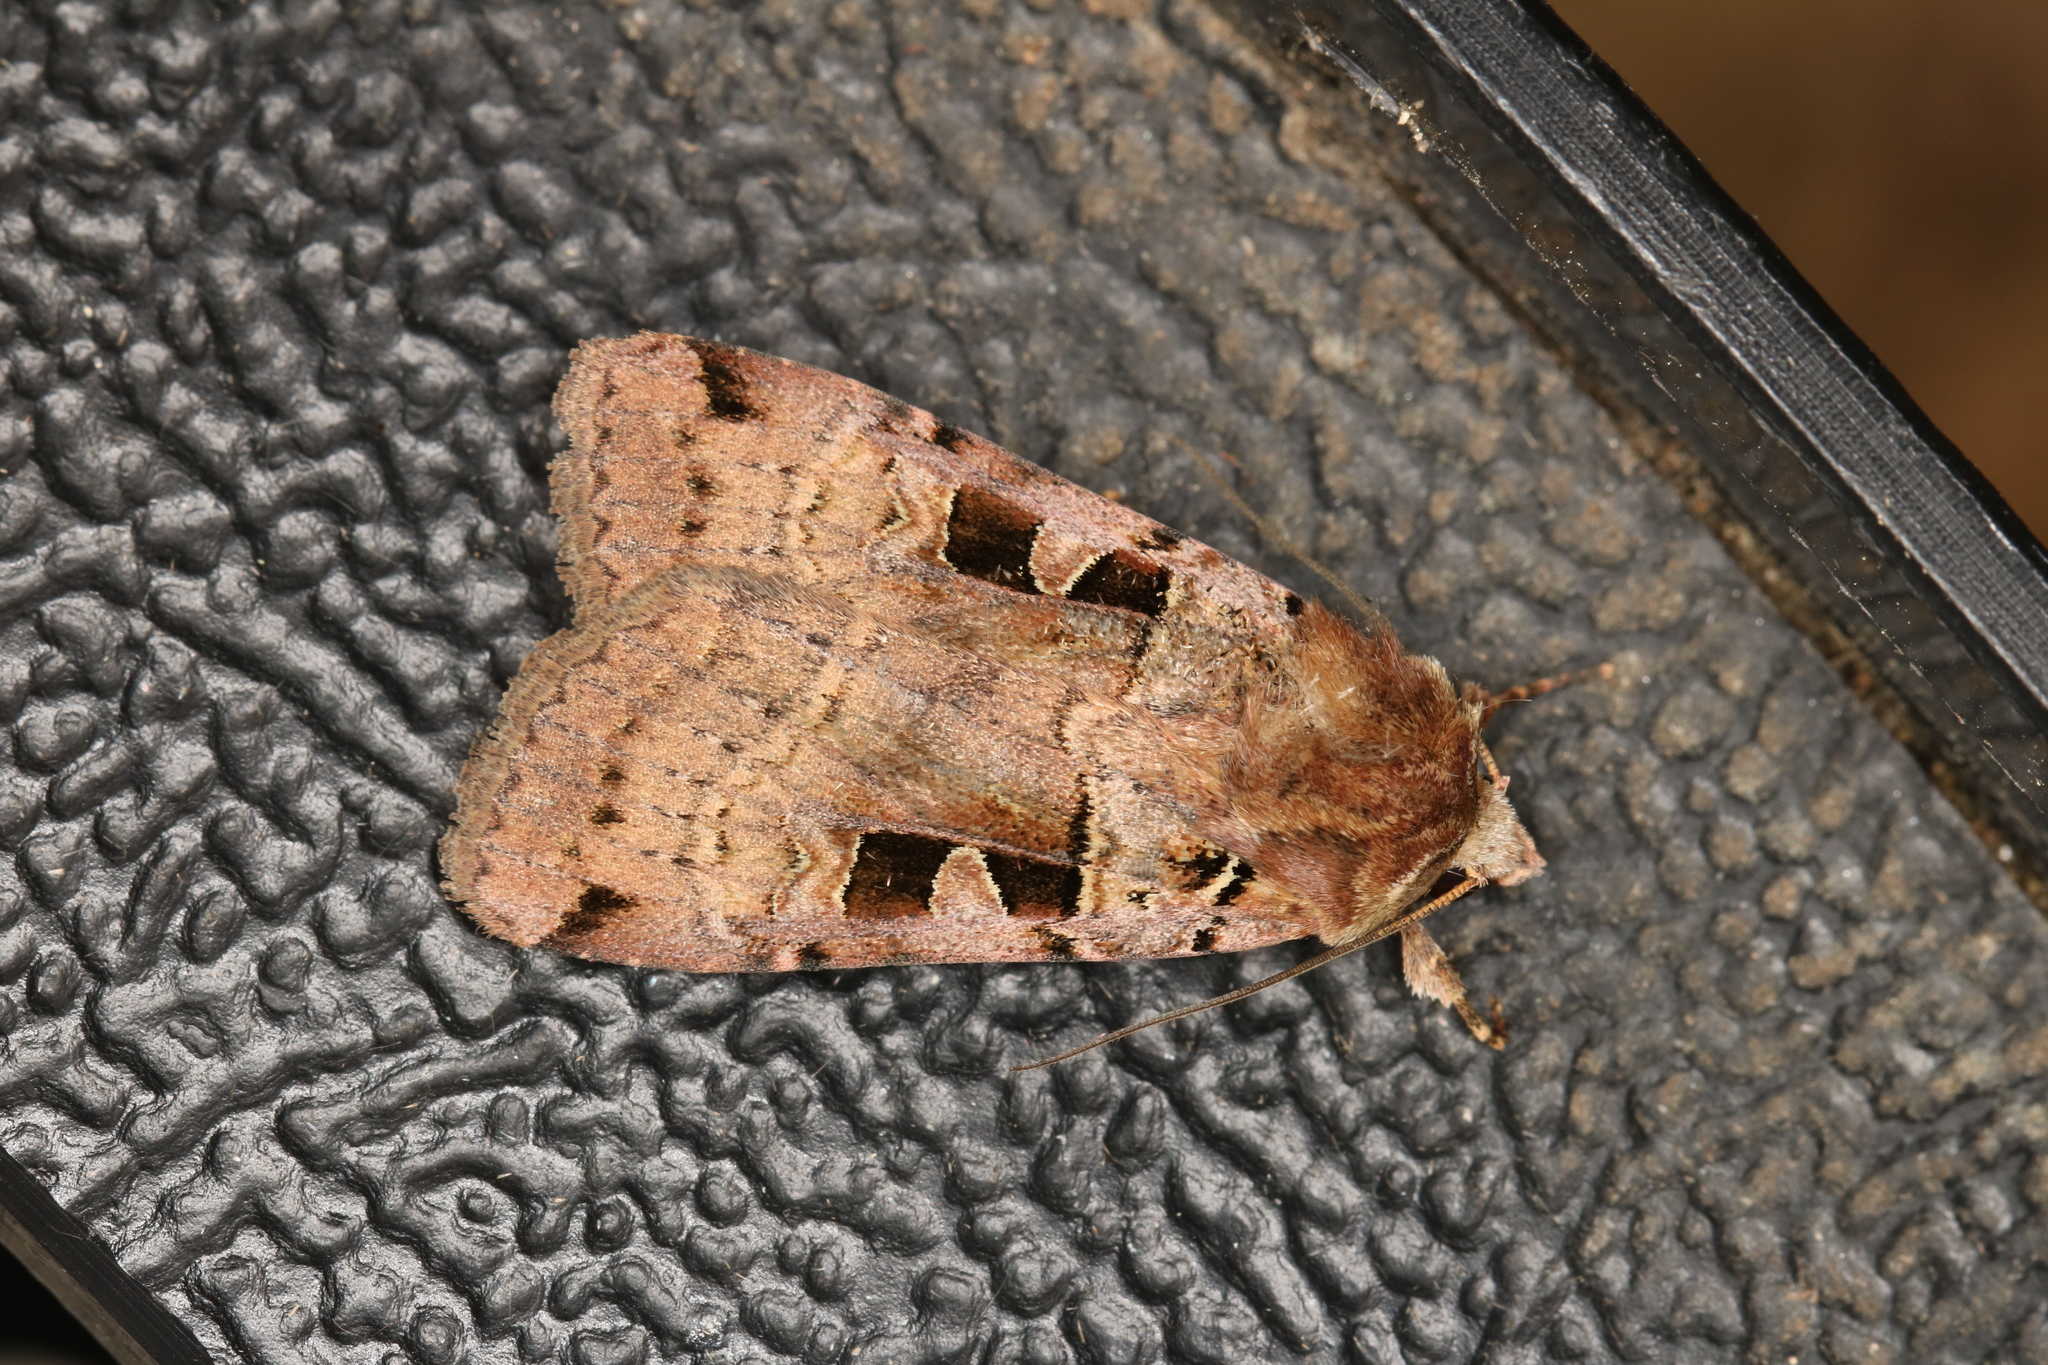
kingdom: Animalia
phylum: Arthropoda
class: Insecta
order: Lepidoptera
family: Noctuidae
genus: Xestia
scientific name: Xestia triangulum
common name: Double square-spot
